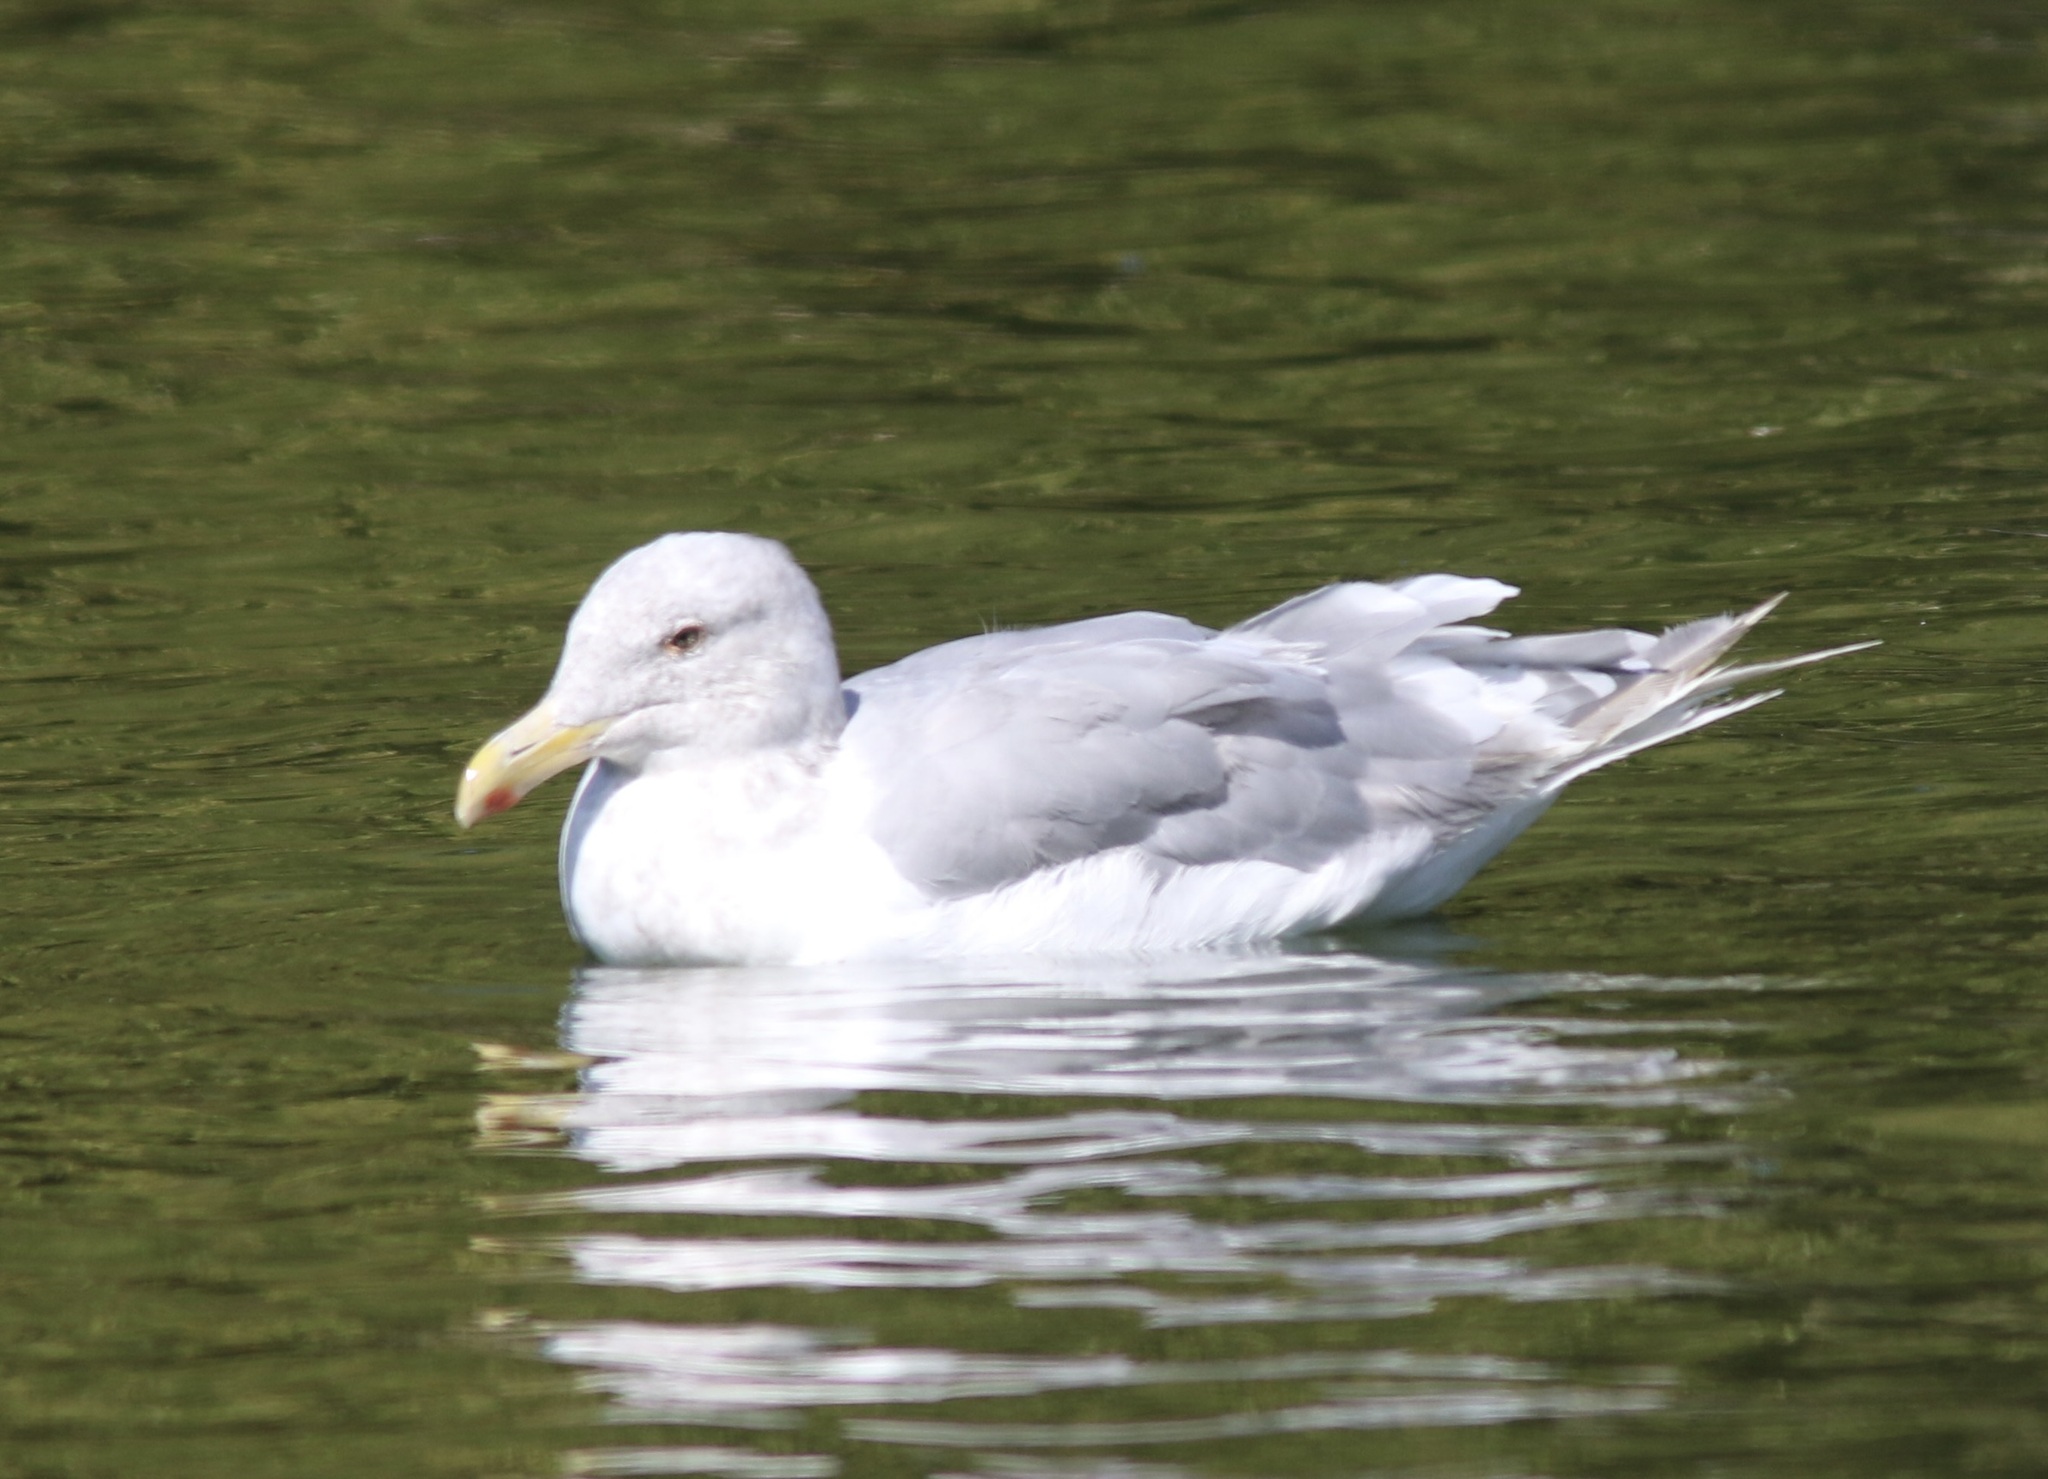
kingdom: Animalia
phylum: Chordata
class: Aves
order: Charadriiformes
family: Laridae
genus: Larus
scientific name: Larus glaucescens
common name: Glaucous-winged gull
